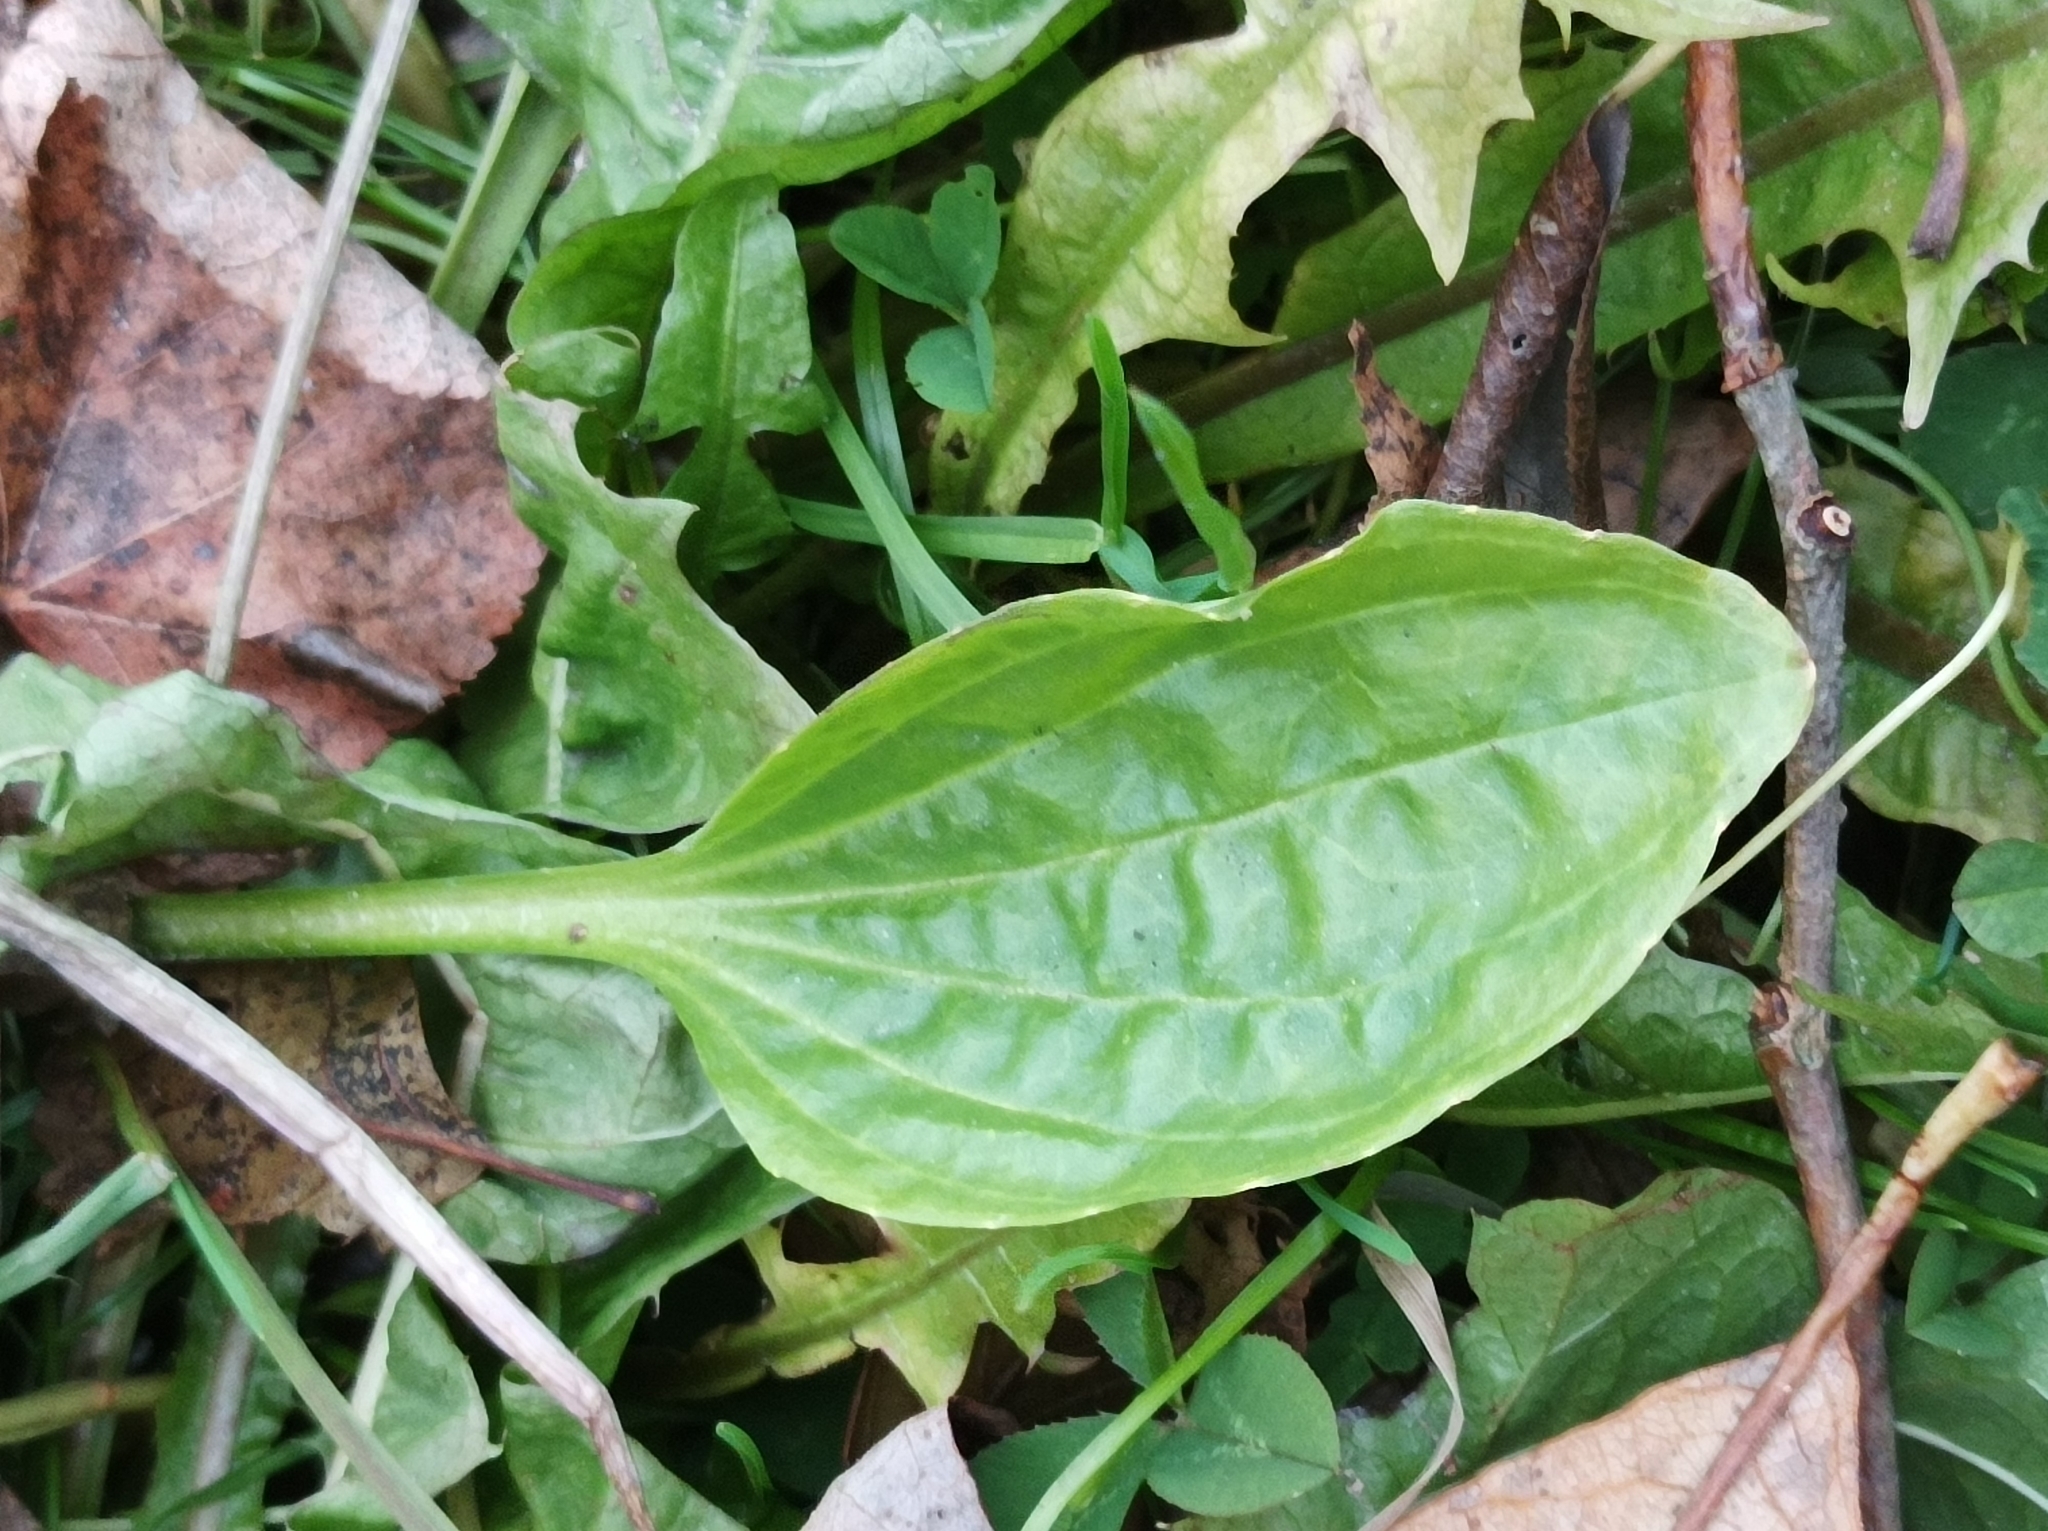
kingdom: Plantae
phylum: Tracheophyta
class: Magnoliopsida
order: Lamiales
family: Plantaginaceae
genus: Plantago
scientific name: Plantago major
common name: Common plantain
